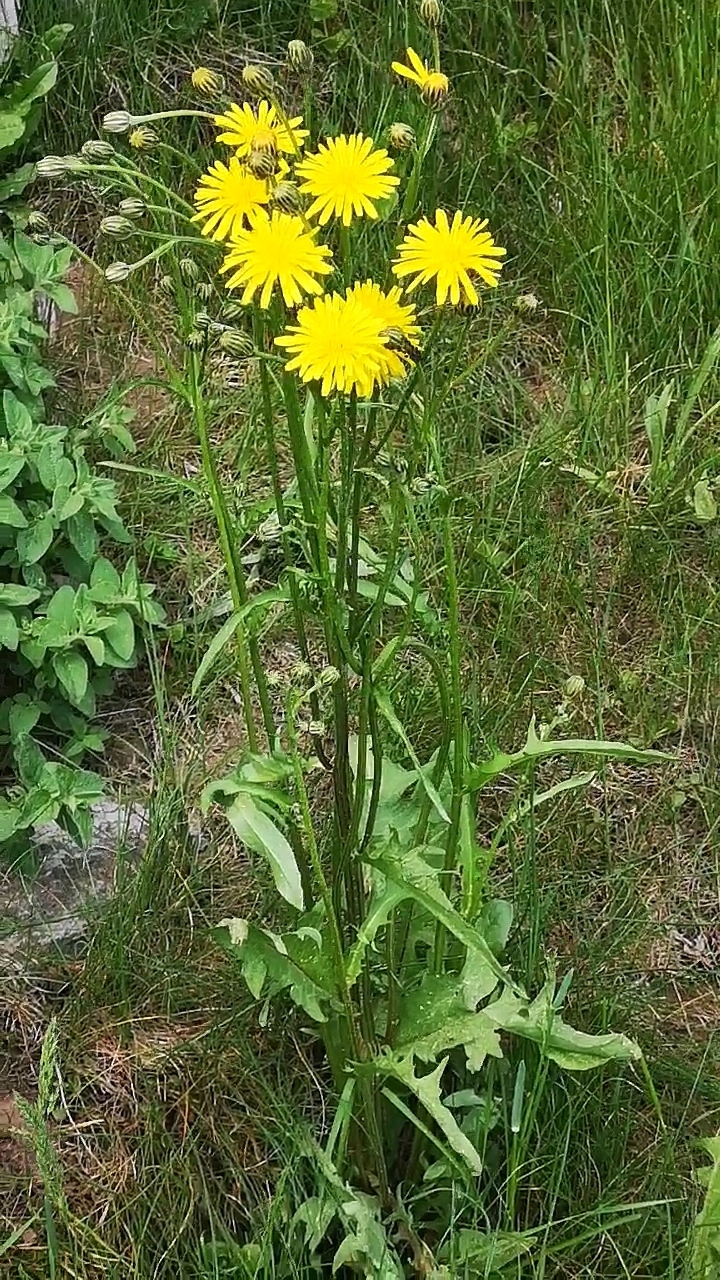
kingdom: Plantae
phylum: Tracheophyta
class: Magnoliopsida
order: Asterales
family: Asteraceae
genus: Crepis
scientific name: Crepis biennis
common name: Rough hawk's-beard
